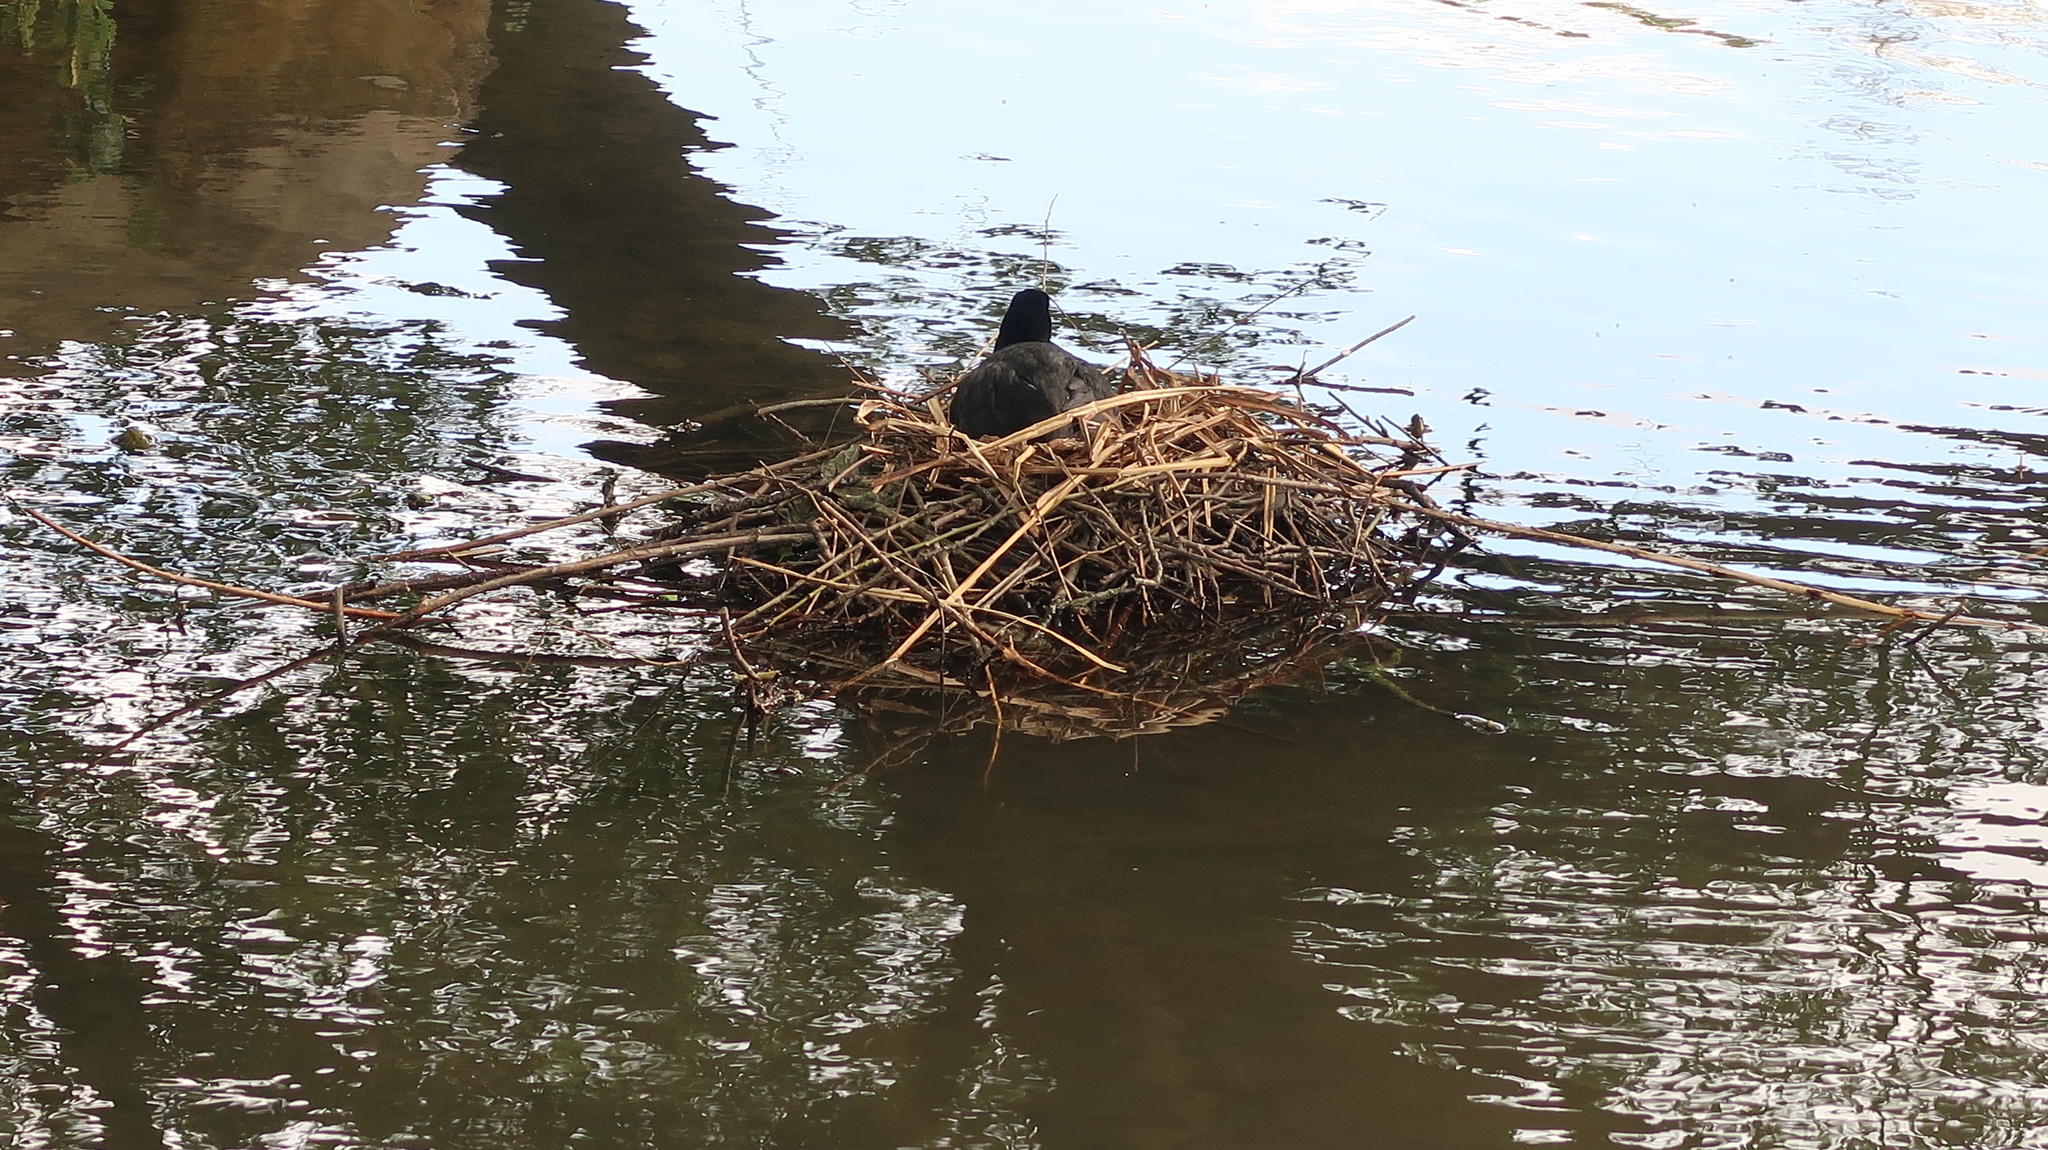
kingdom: Animalia
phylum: Chordata
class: Aves
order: Gruiformes
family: Rallidae
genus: Fulica
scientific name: Fulica atra
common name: Eurasian coot
